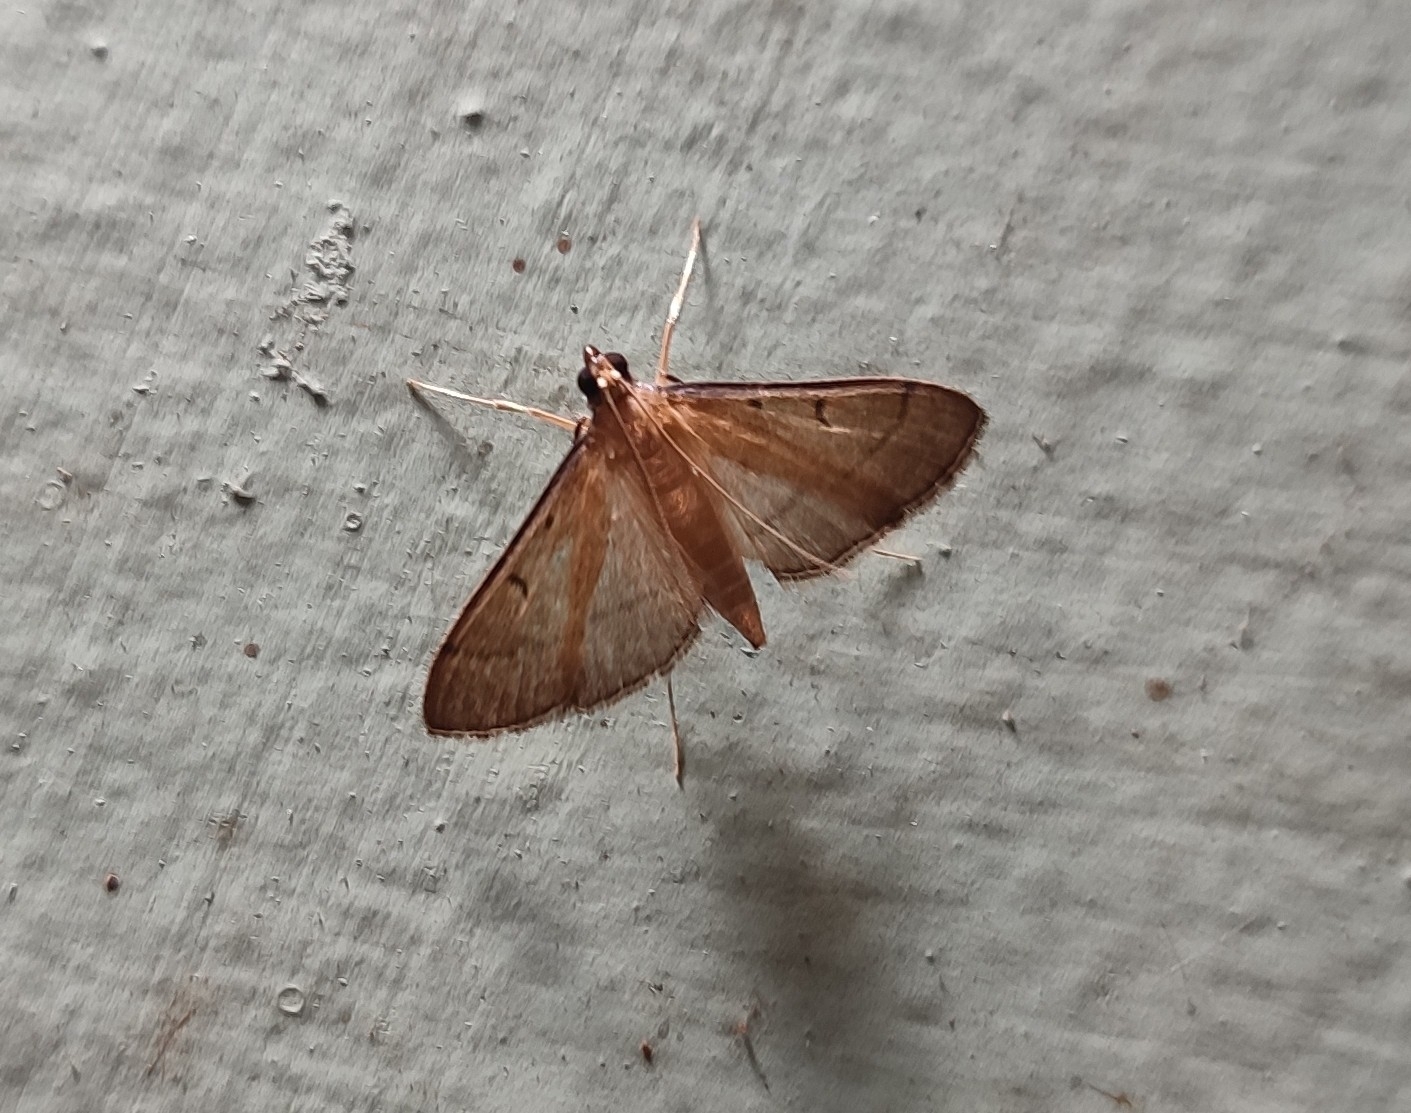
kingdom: Animalia
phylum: Arthropoda
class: Insecta
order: Lepidoptera
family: Crambidae
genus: Bradina
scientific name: Bradina admixtalis
